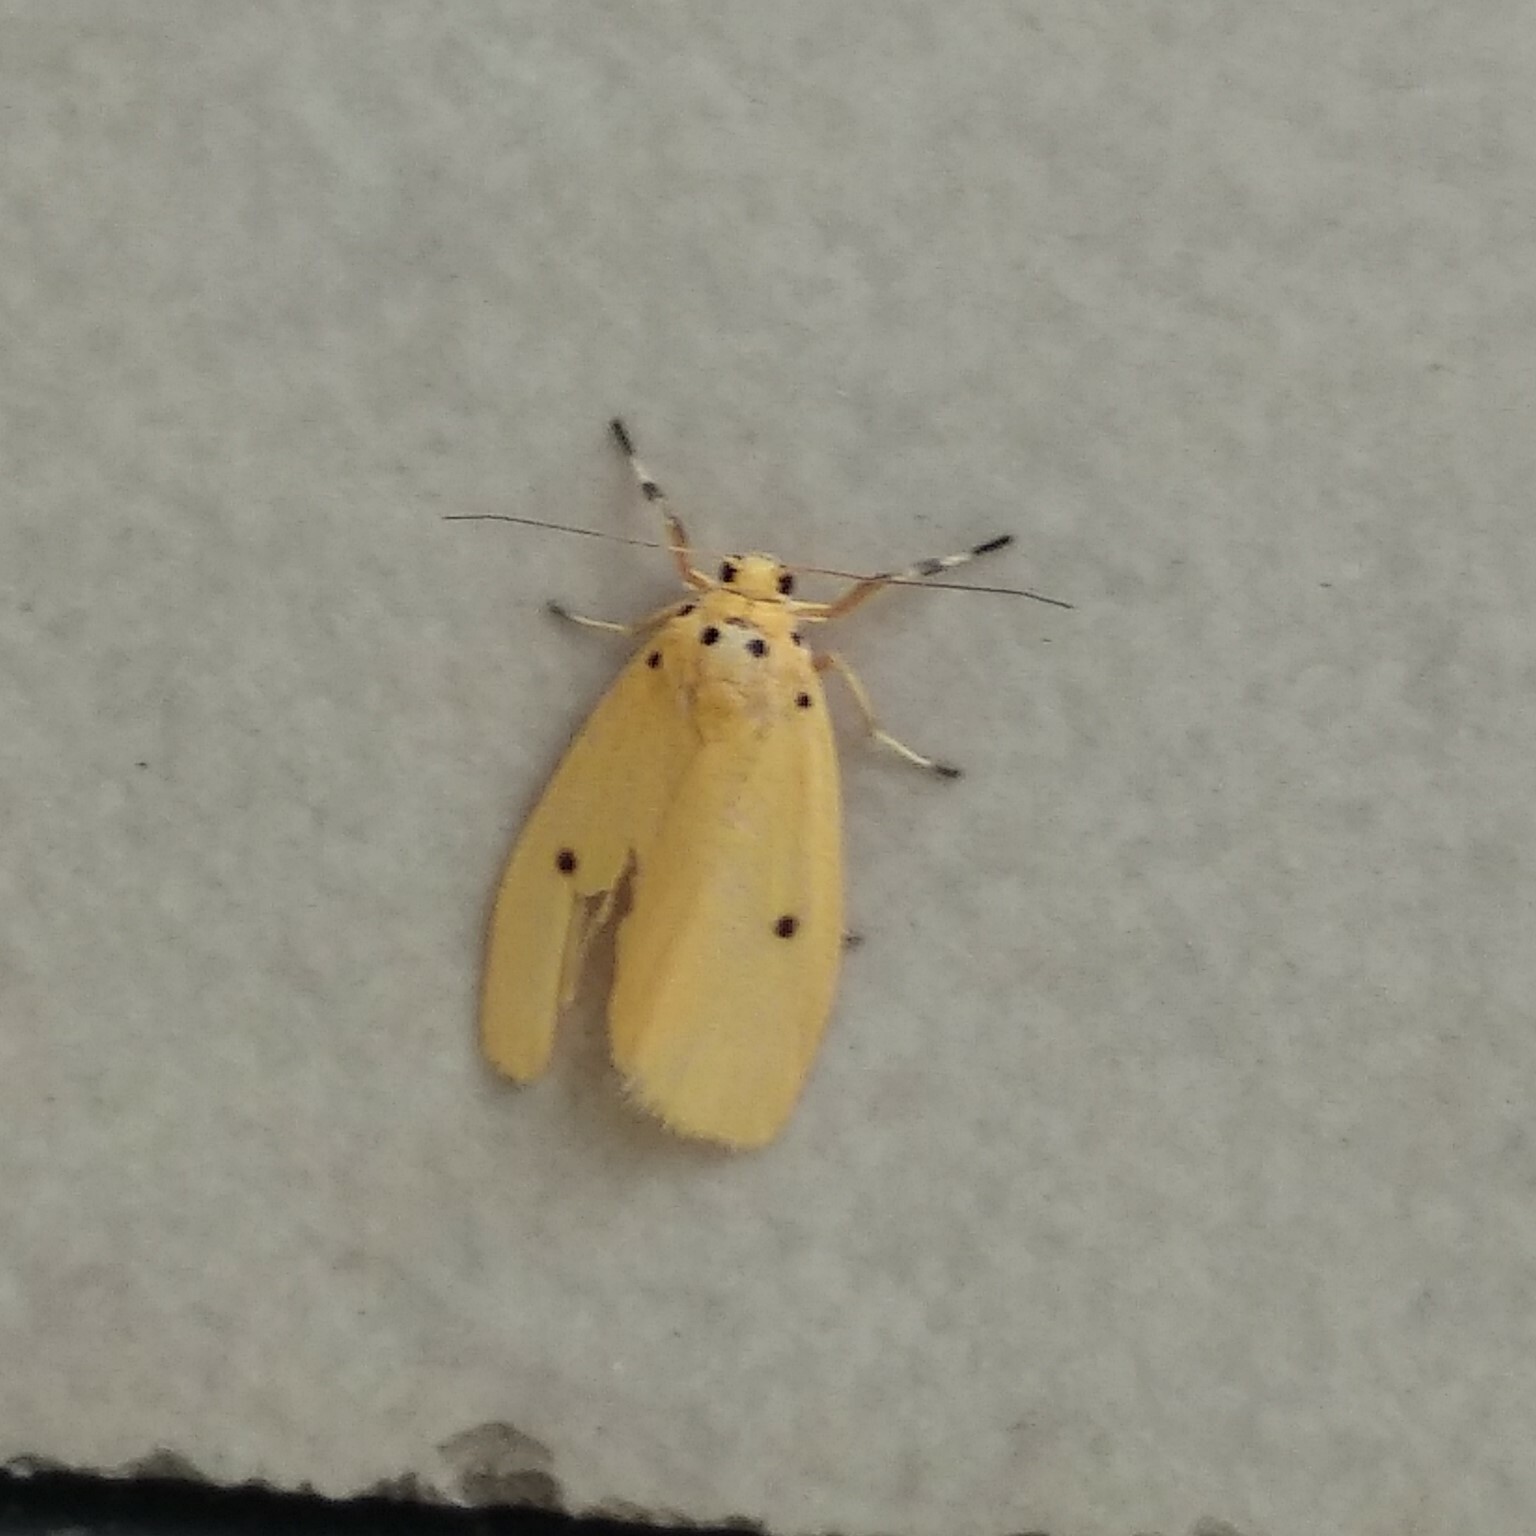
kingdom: Animalia
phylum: Arthropoda
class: Insecta
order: Lepidoptera
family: Erebidae
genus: Miltochrista
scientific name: Miltochrista undulata
